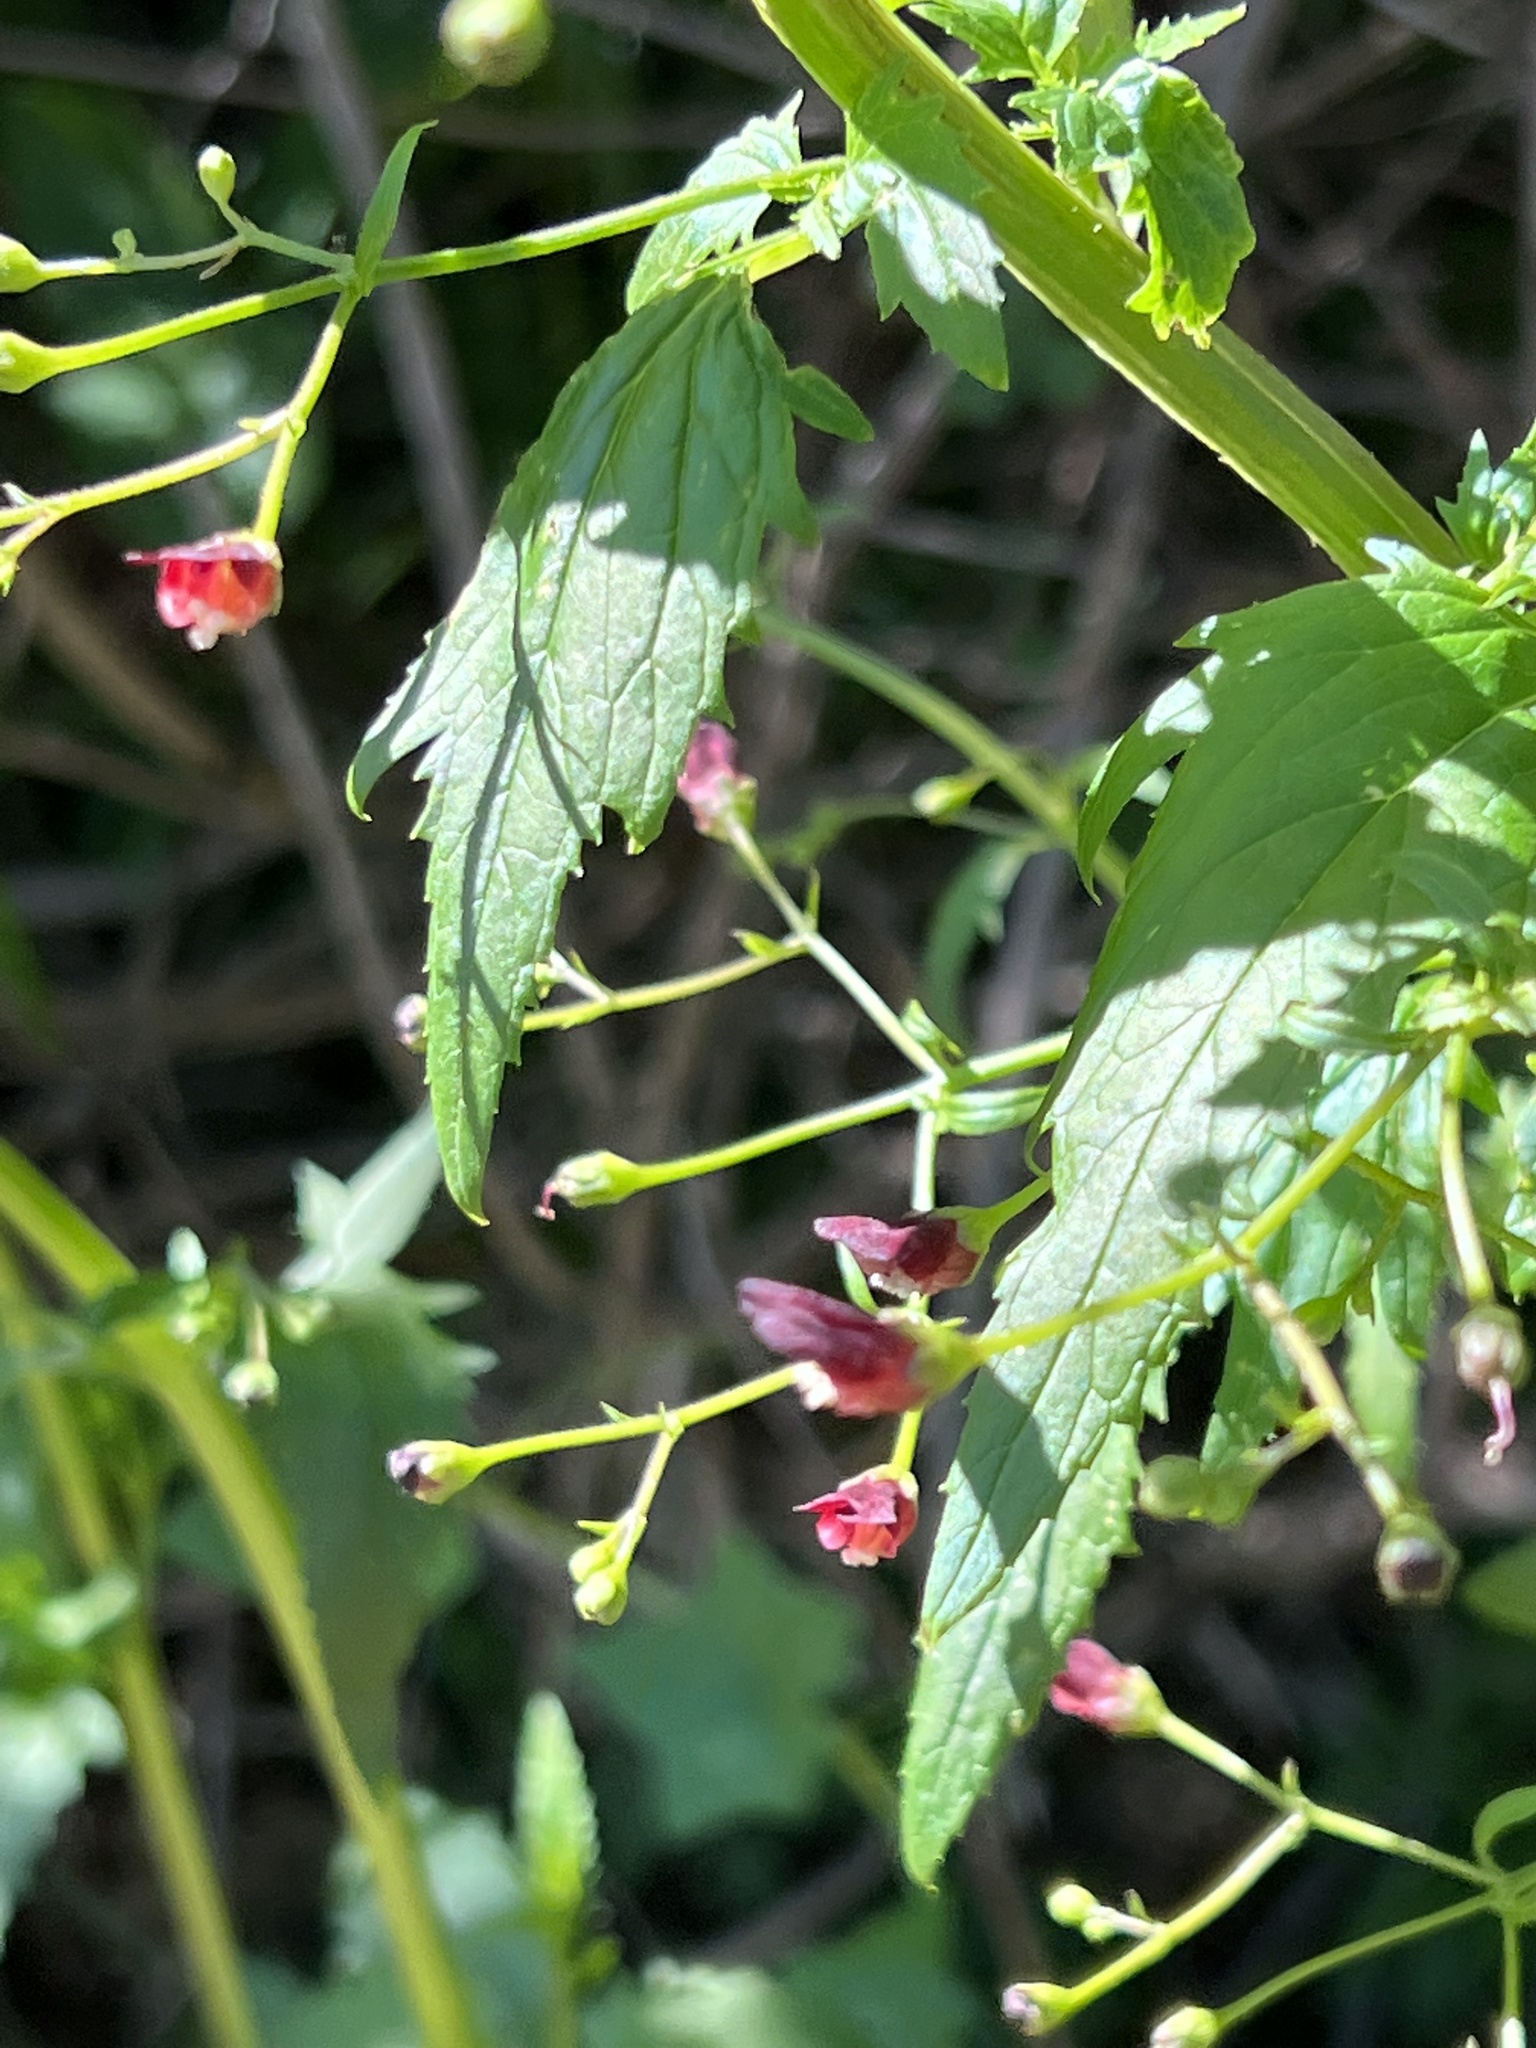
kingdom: Plantae
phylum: Tracheophyta
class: Magnoliopsida
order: Lamiales
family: Scrophulariaceae
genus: Scrophularia
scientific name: Scrophularia californica
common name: California figwort
